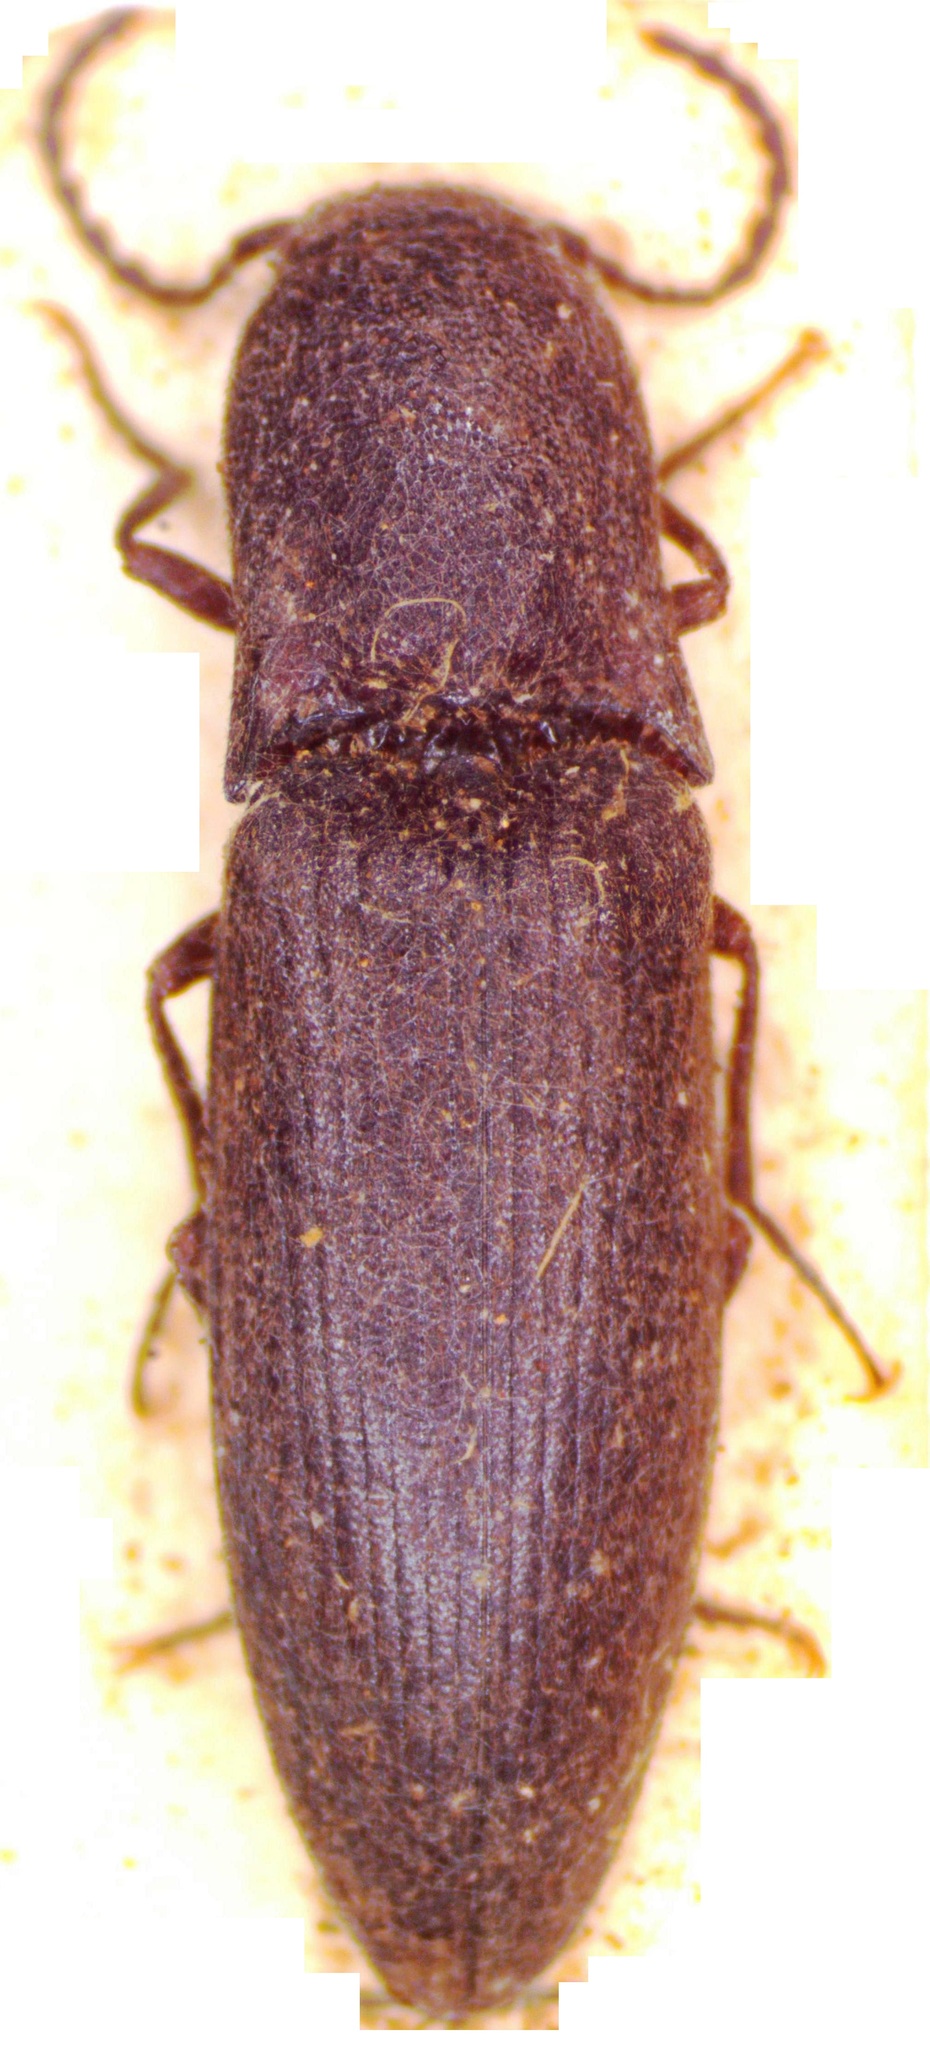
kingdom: Animalia
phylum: Arthropoda
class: Insecta
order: Coleoptera
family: Elateridae
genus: Ectinus
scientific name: Ectinus aterrimus
